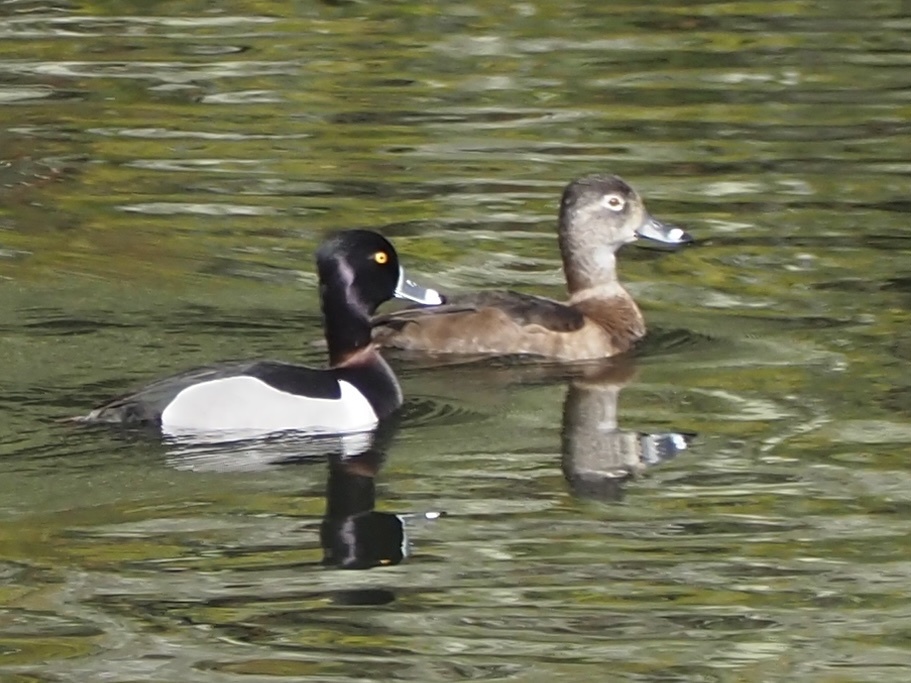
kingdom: Animalia
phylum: Chordata
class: Aves
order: Anseriformes
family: Anatidae
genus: Aythya
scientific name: Aythya collaris
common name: Ring-necked duck
